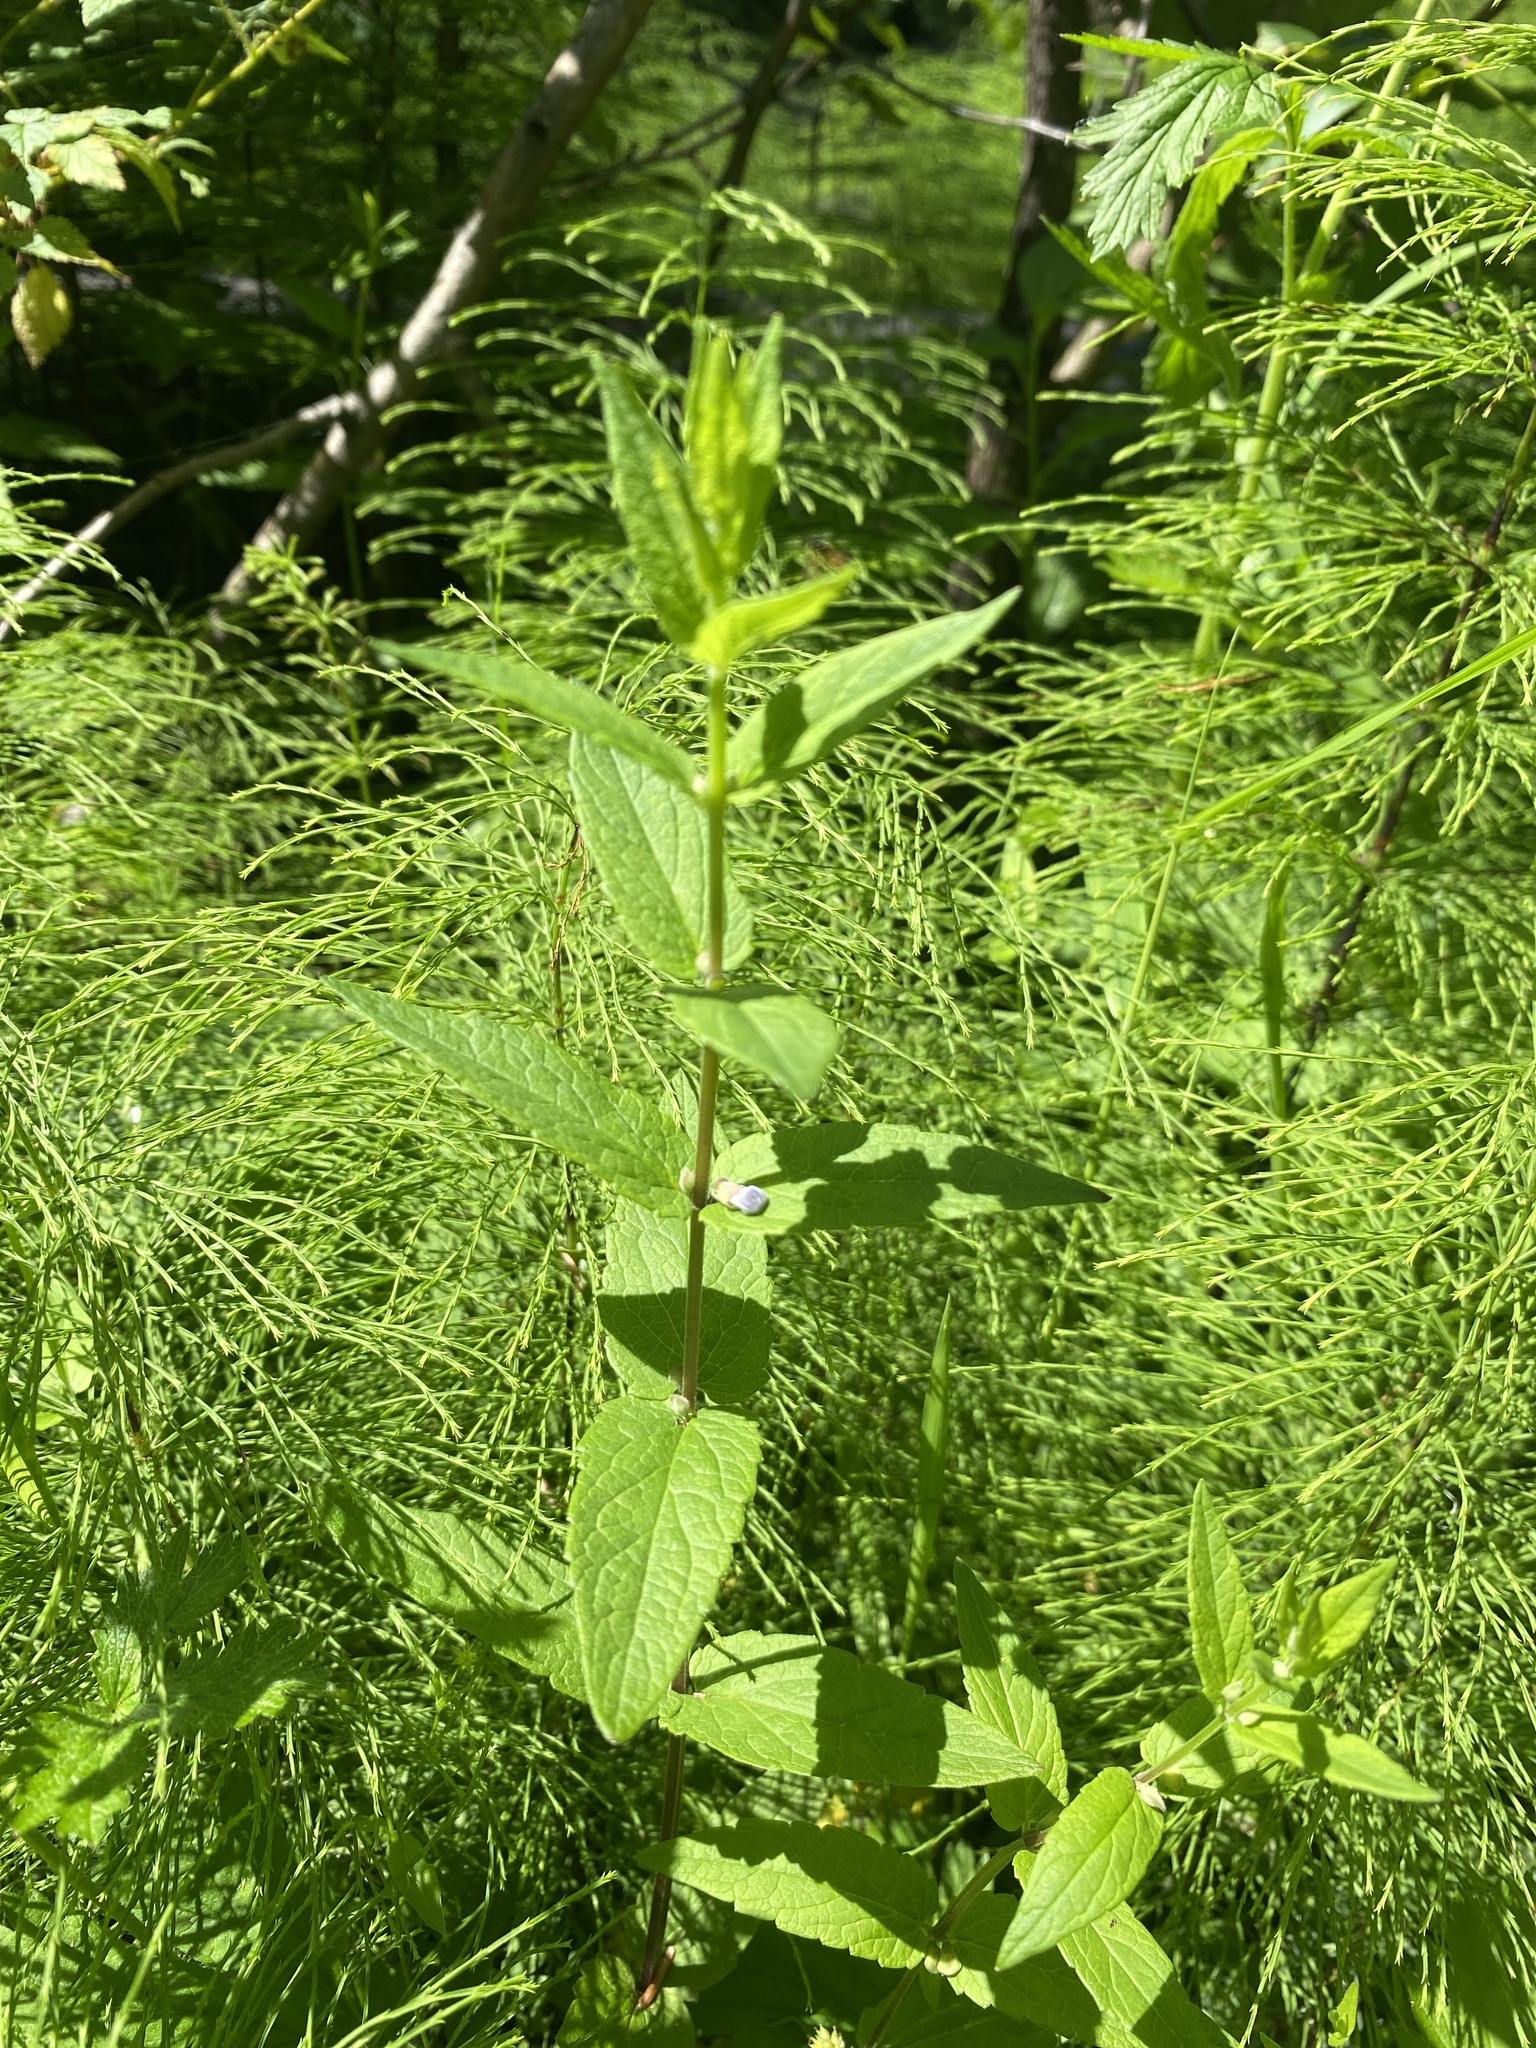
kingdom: Plantae
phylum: Tracheophyta
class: Magnoliopsida
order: Lamiales
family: Lamiaceae
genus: Scutellaria
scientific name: Scutellaria galericulata
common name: Skullcap
